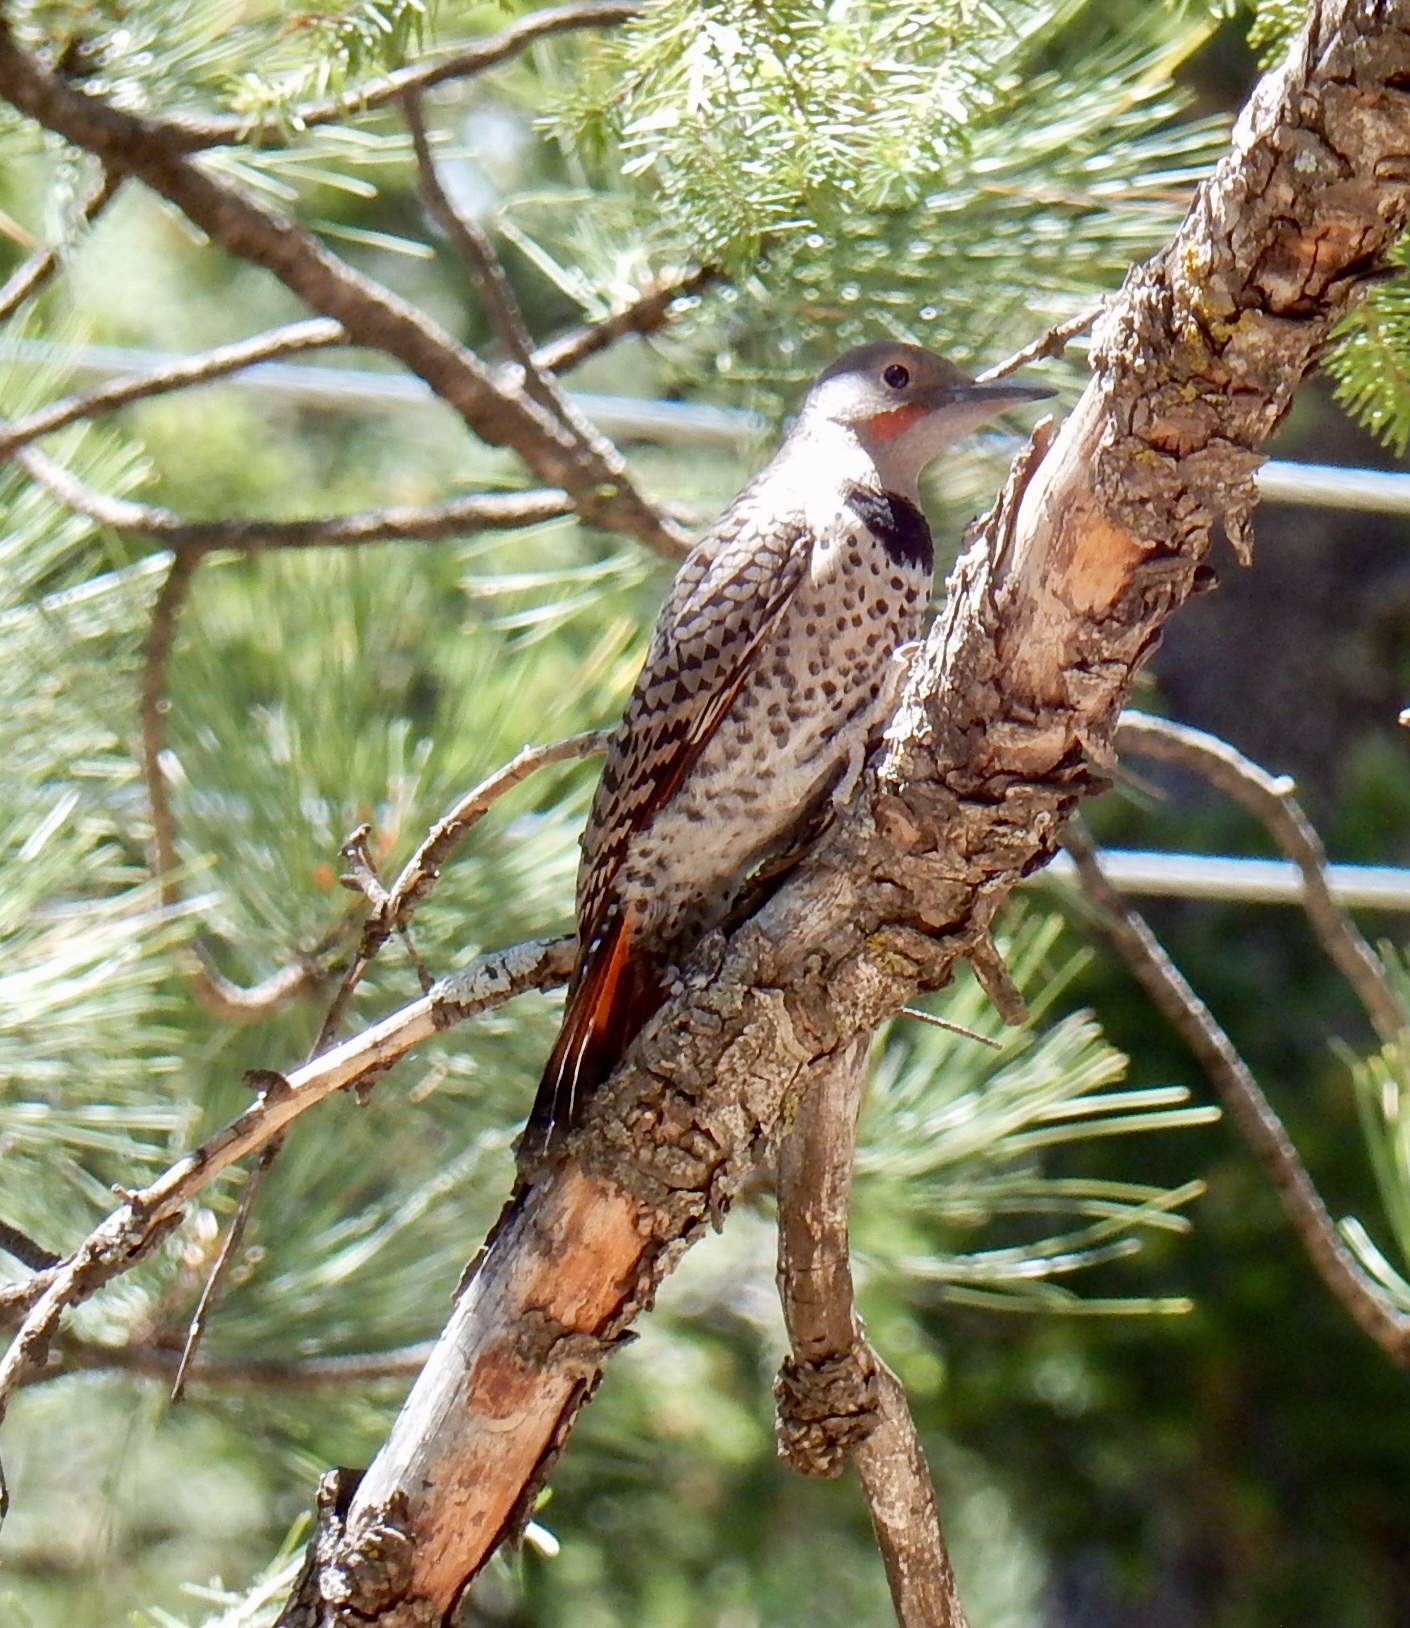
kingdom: Animalia
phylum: Chordata
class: Aves
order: Piciformes
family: Picidae
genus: Colaptes
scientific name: Colaptes auratus
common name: Northern flicker
